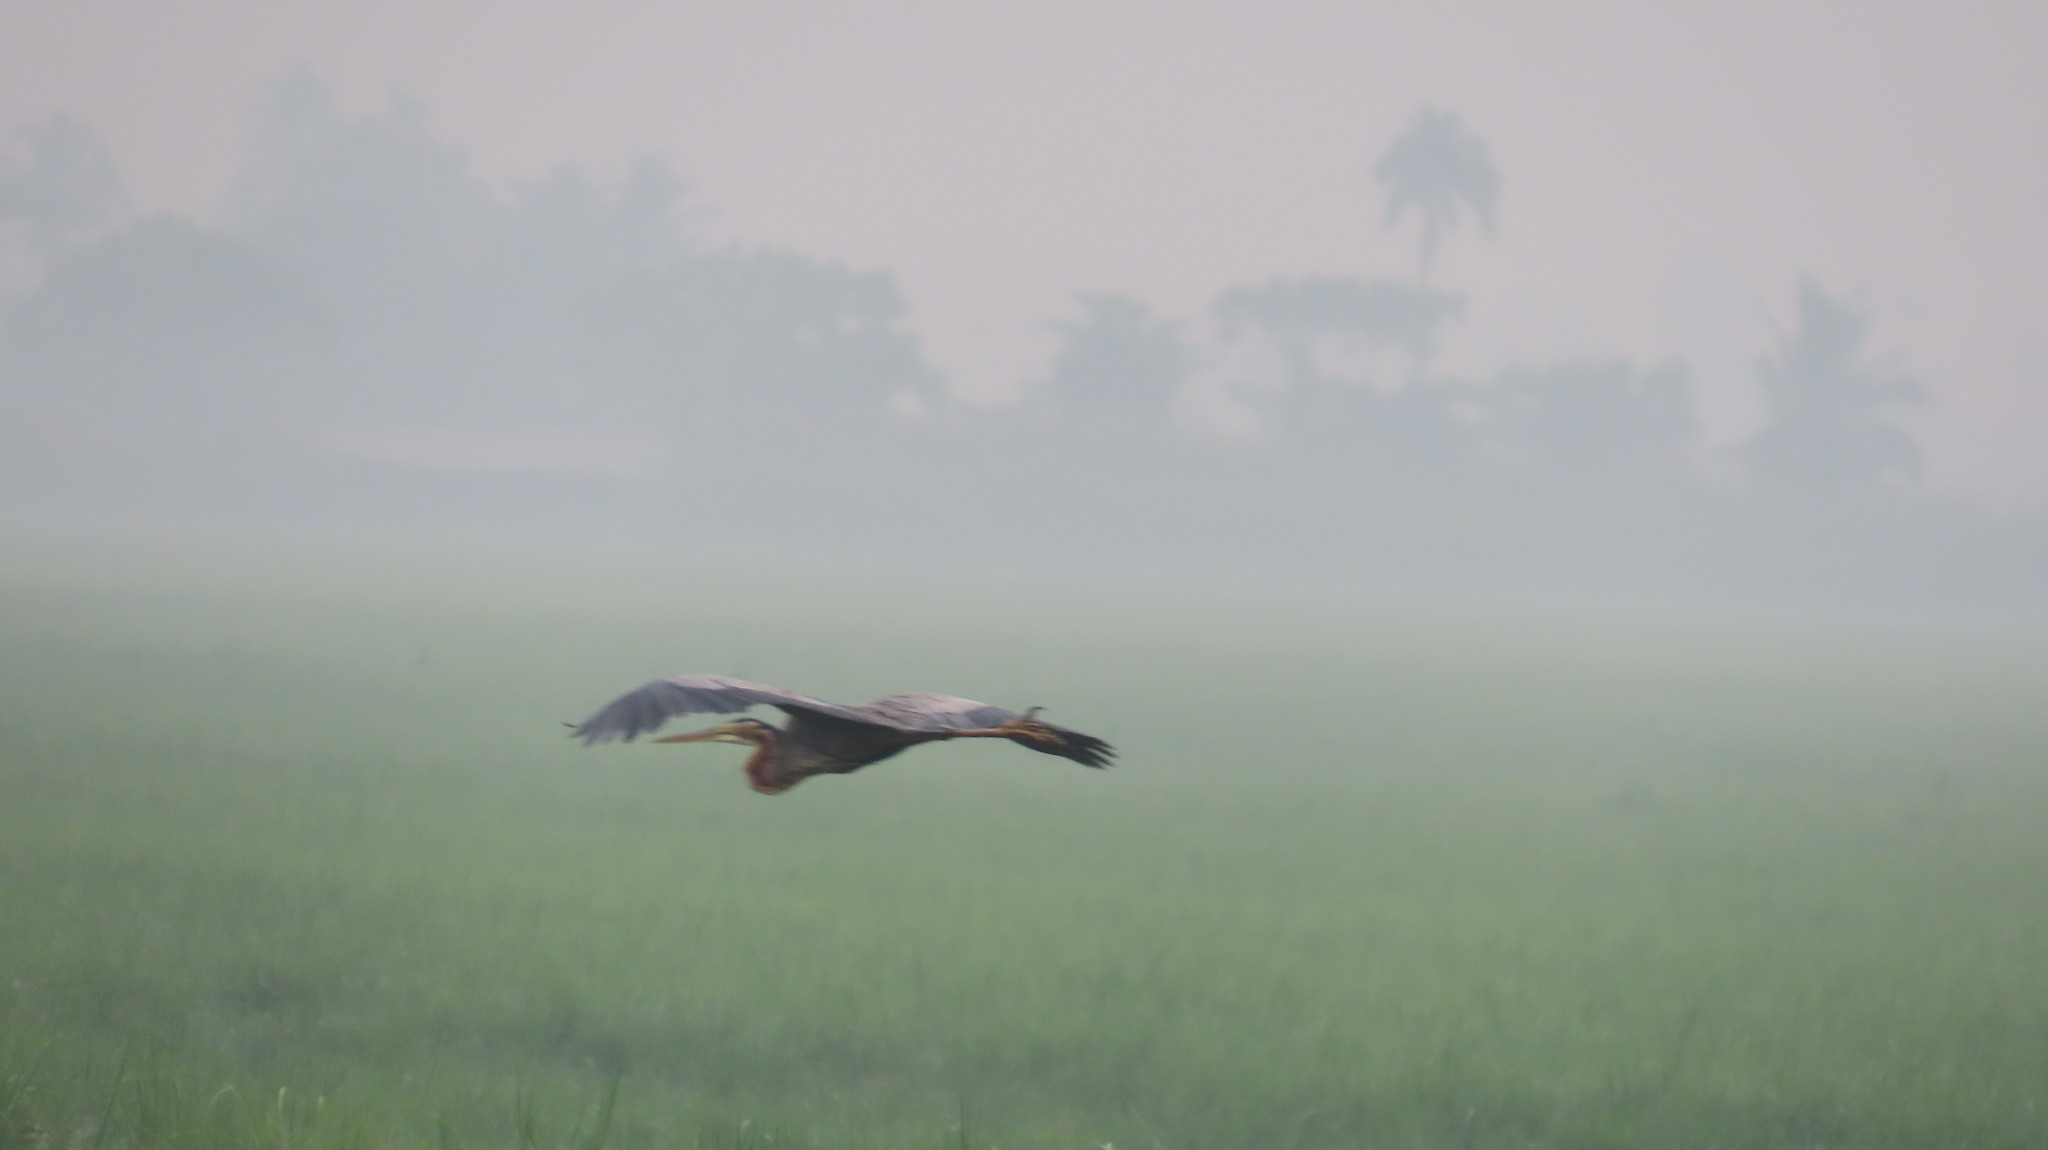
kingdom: Animalia
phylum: Chordata
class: Aves
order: Pelecaniformes
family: Ardeidae
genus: Ardea
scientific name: Ardea purpurea
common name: Purple heron
